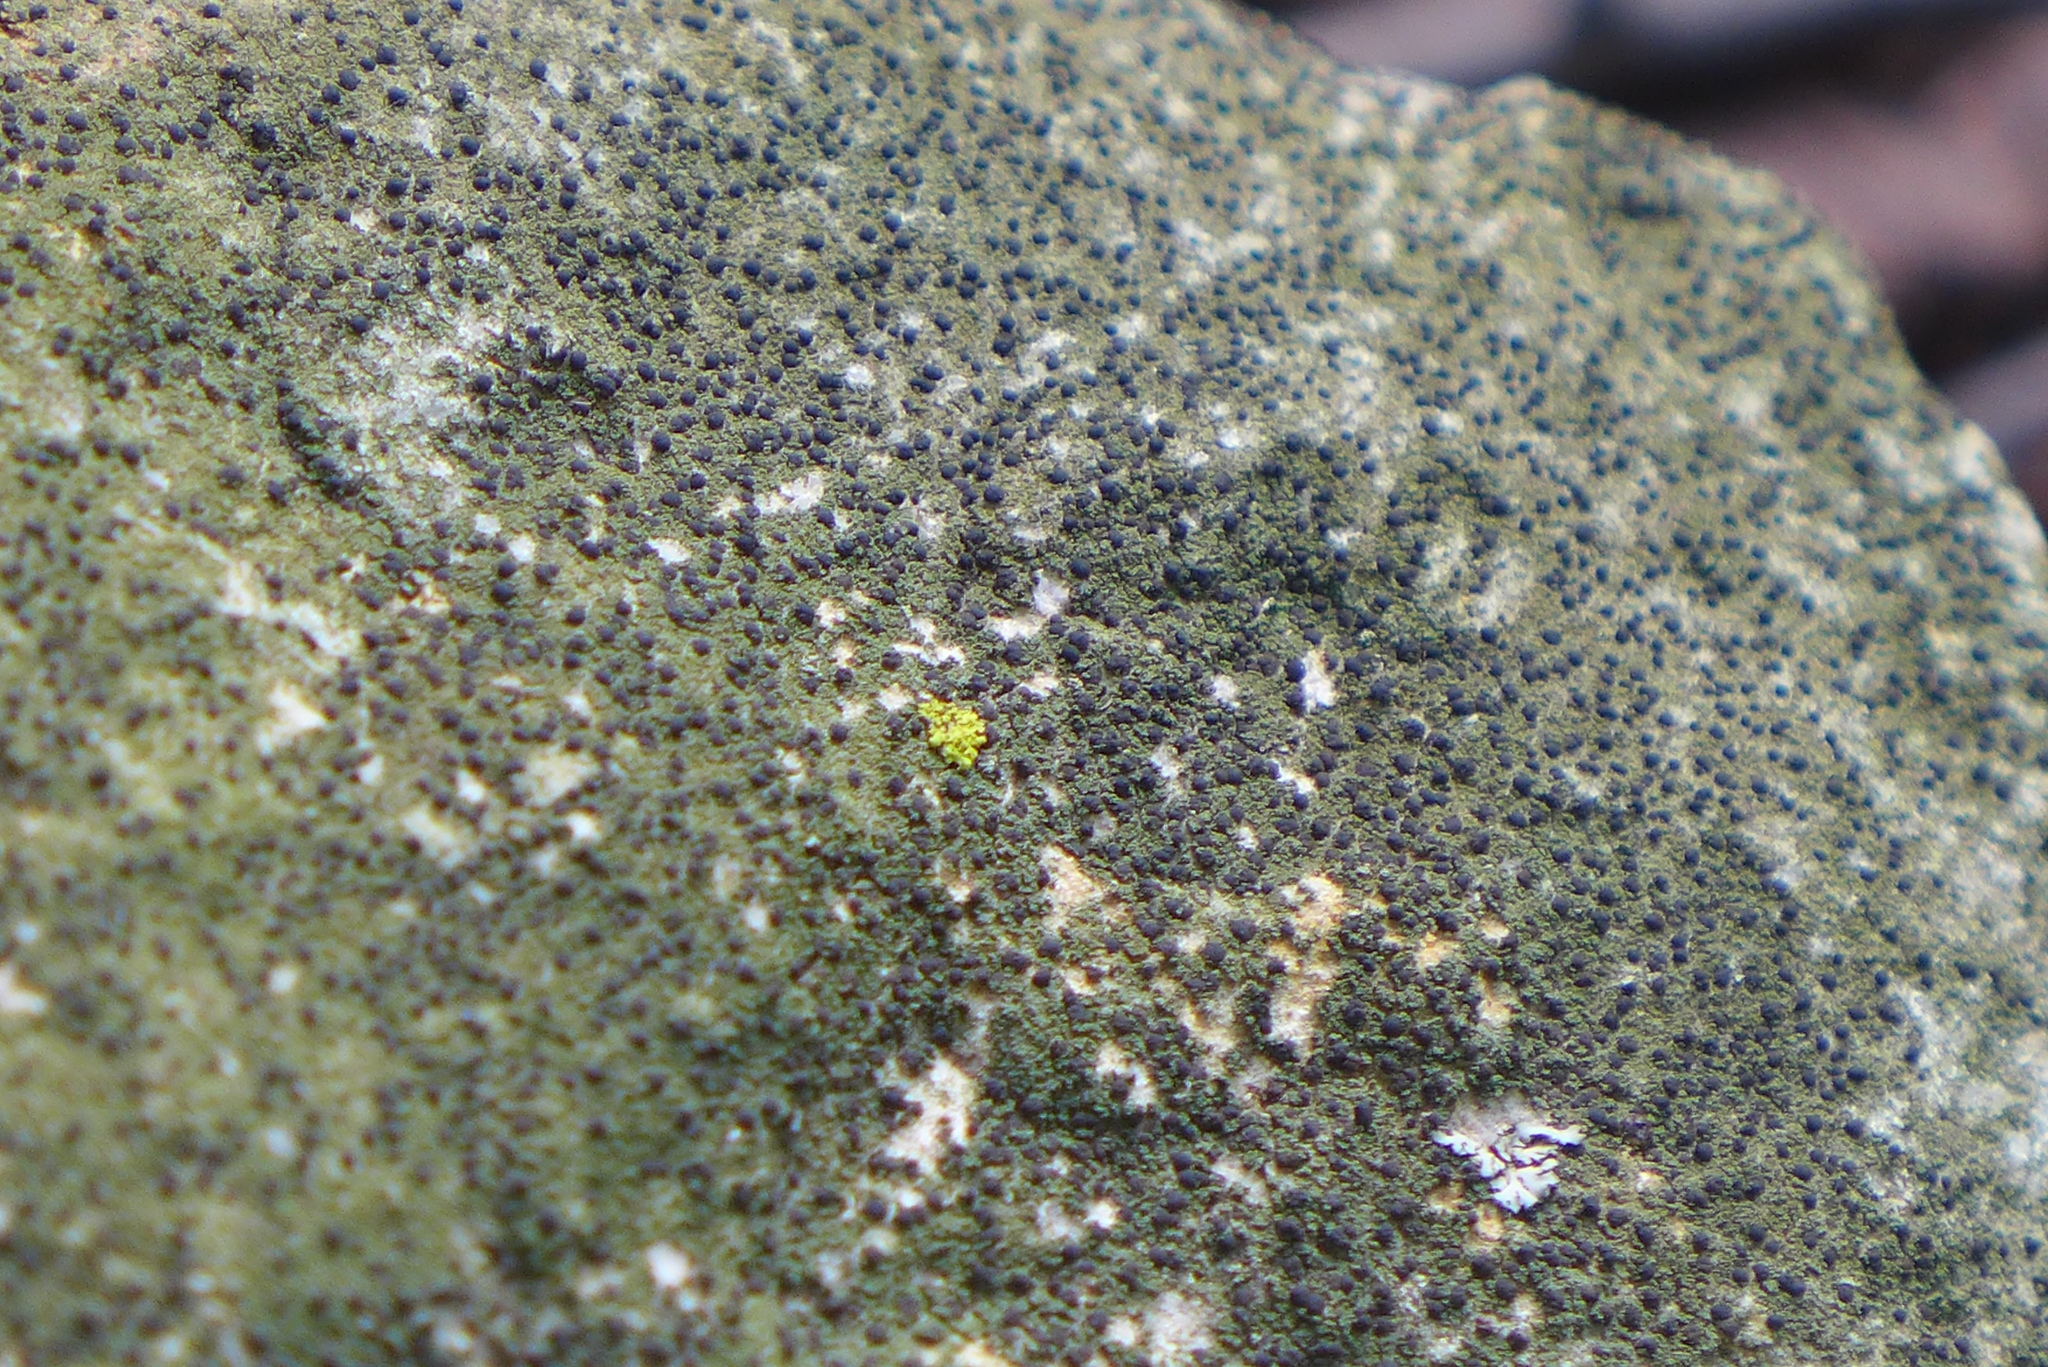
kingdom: Fungi
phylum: Ascomycota
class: Lecanoromycetes
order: Lecanorales
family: Ramalinaceae
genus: Bacidia
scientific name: Bacidia
